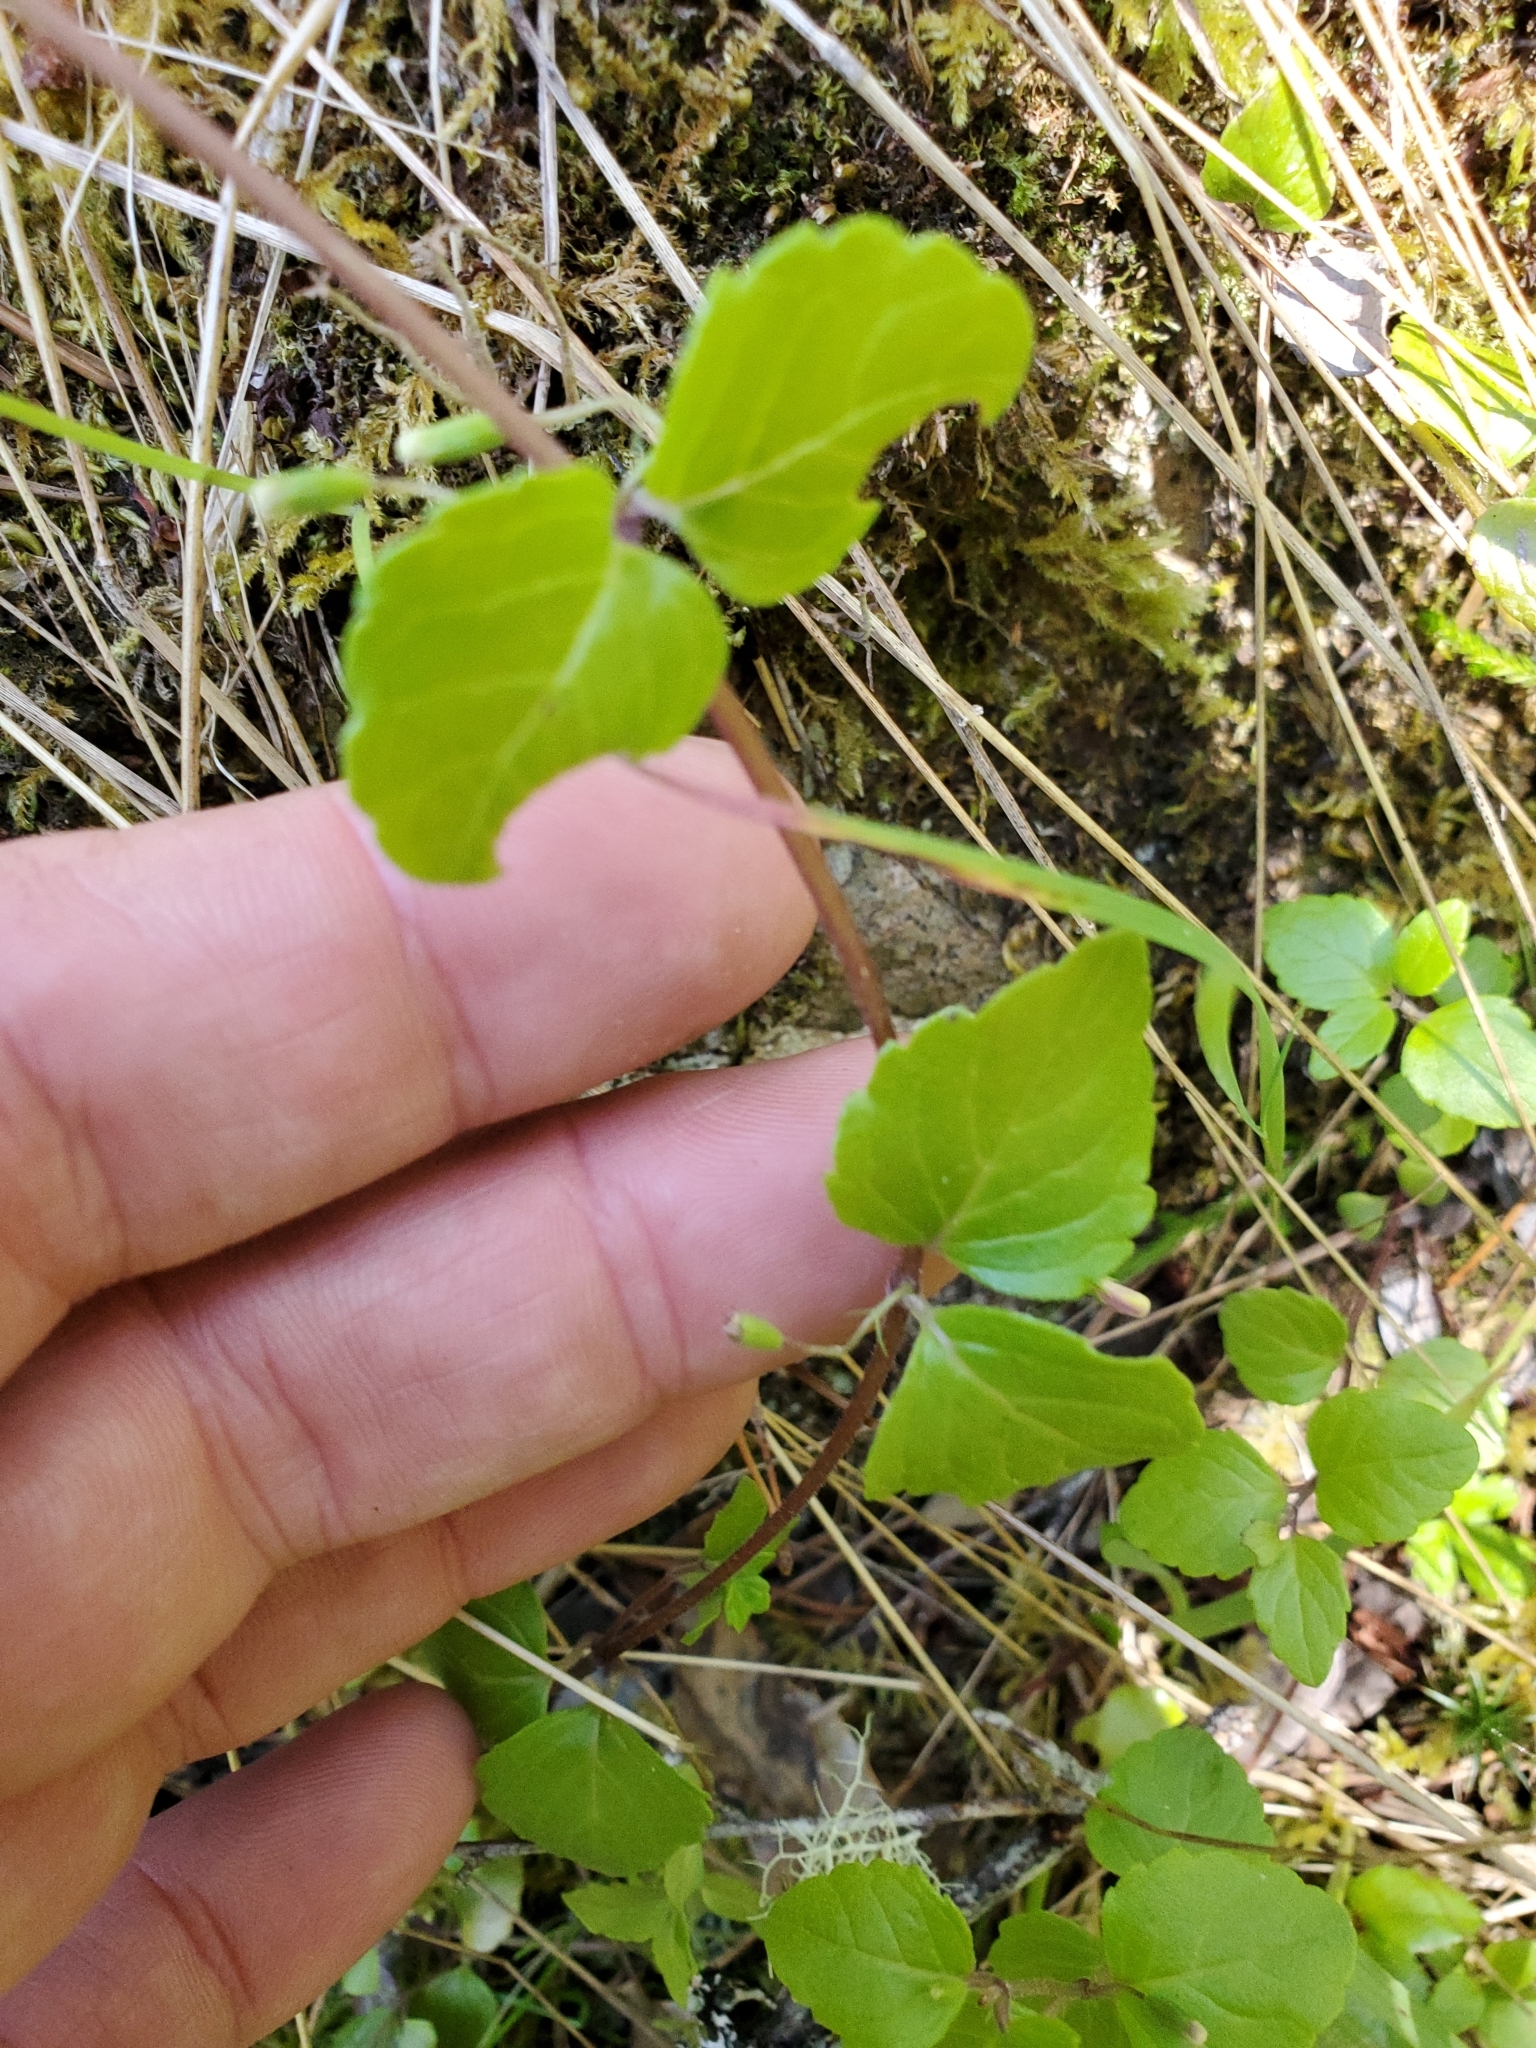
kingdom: Plantae
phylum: Tracheophyta
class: Magnoliopsida
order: Lamiales
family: Lamiaceae
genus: Micromeria
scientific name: Micromeria douglasii
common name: Yerba buena
